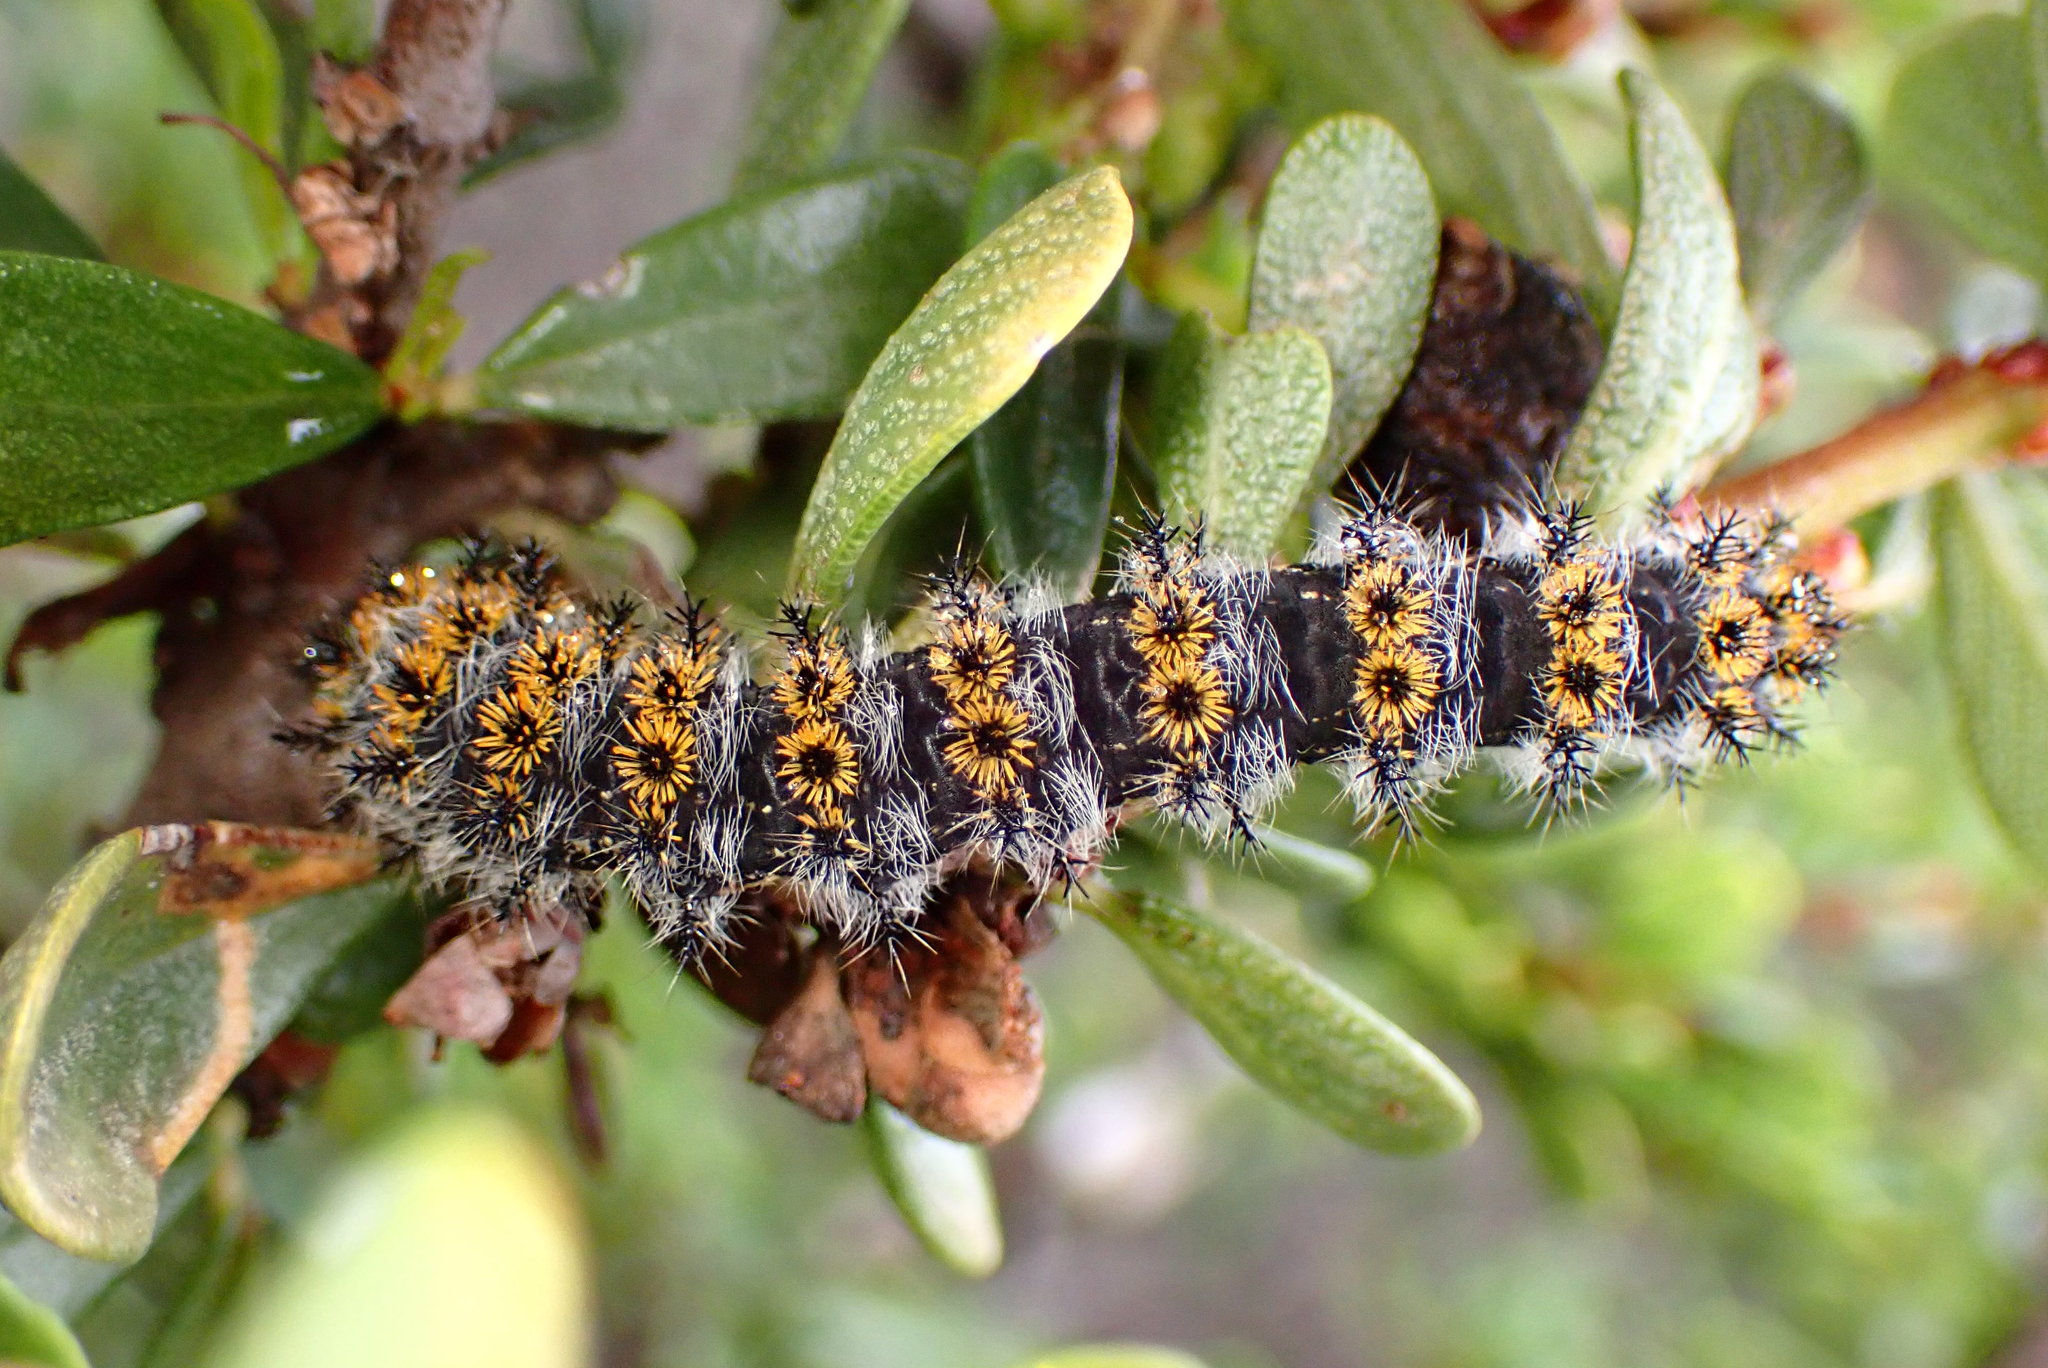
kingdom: Animalia
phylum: Arthropoda
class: Insecta
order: Lepidoptera
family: Saturniidae
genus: Hemileuca
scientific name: Hemileuca eglanterina
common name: Western sheepmoth
